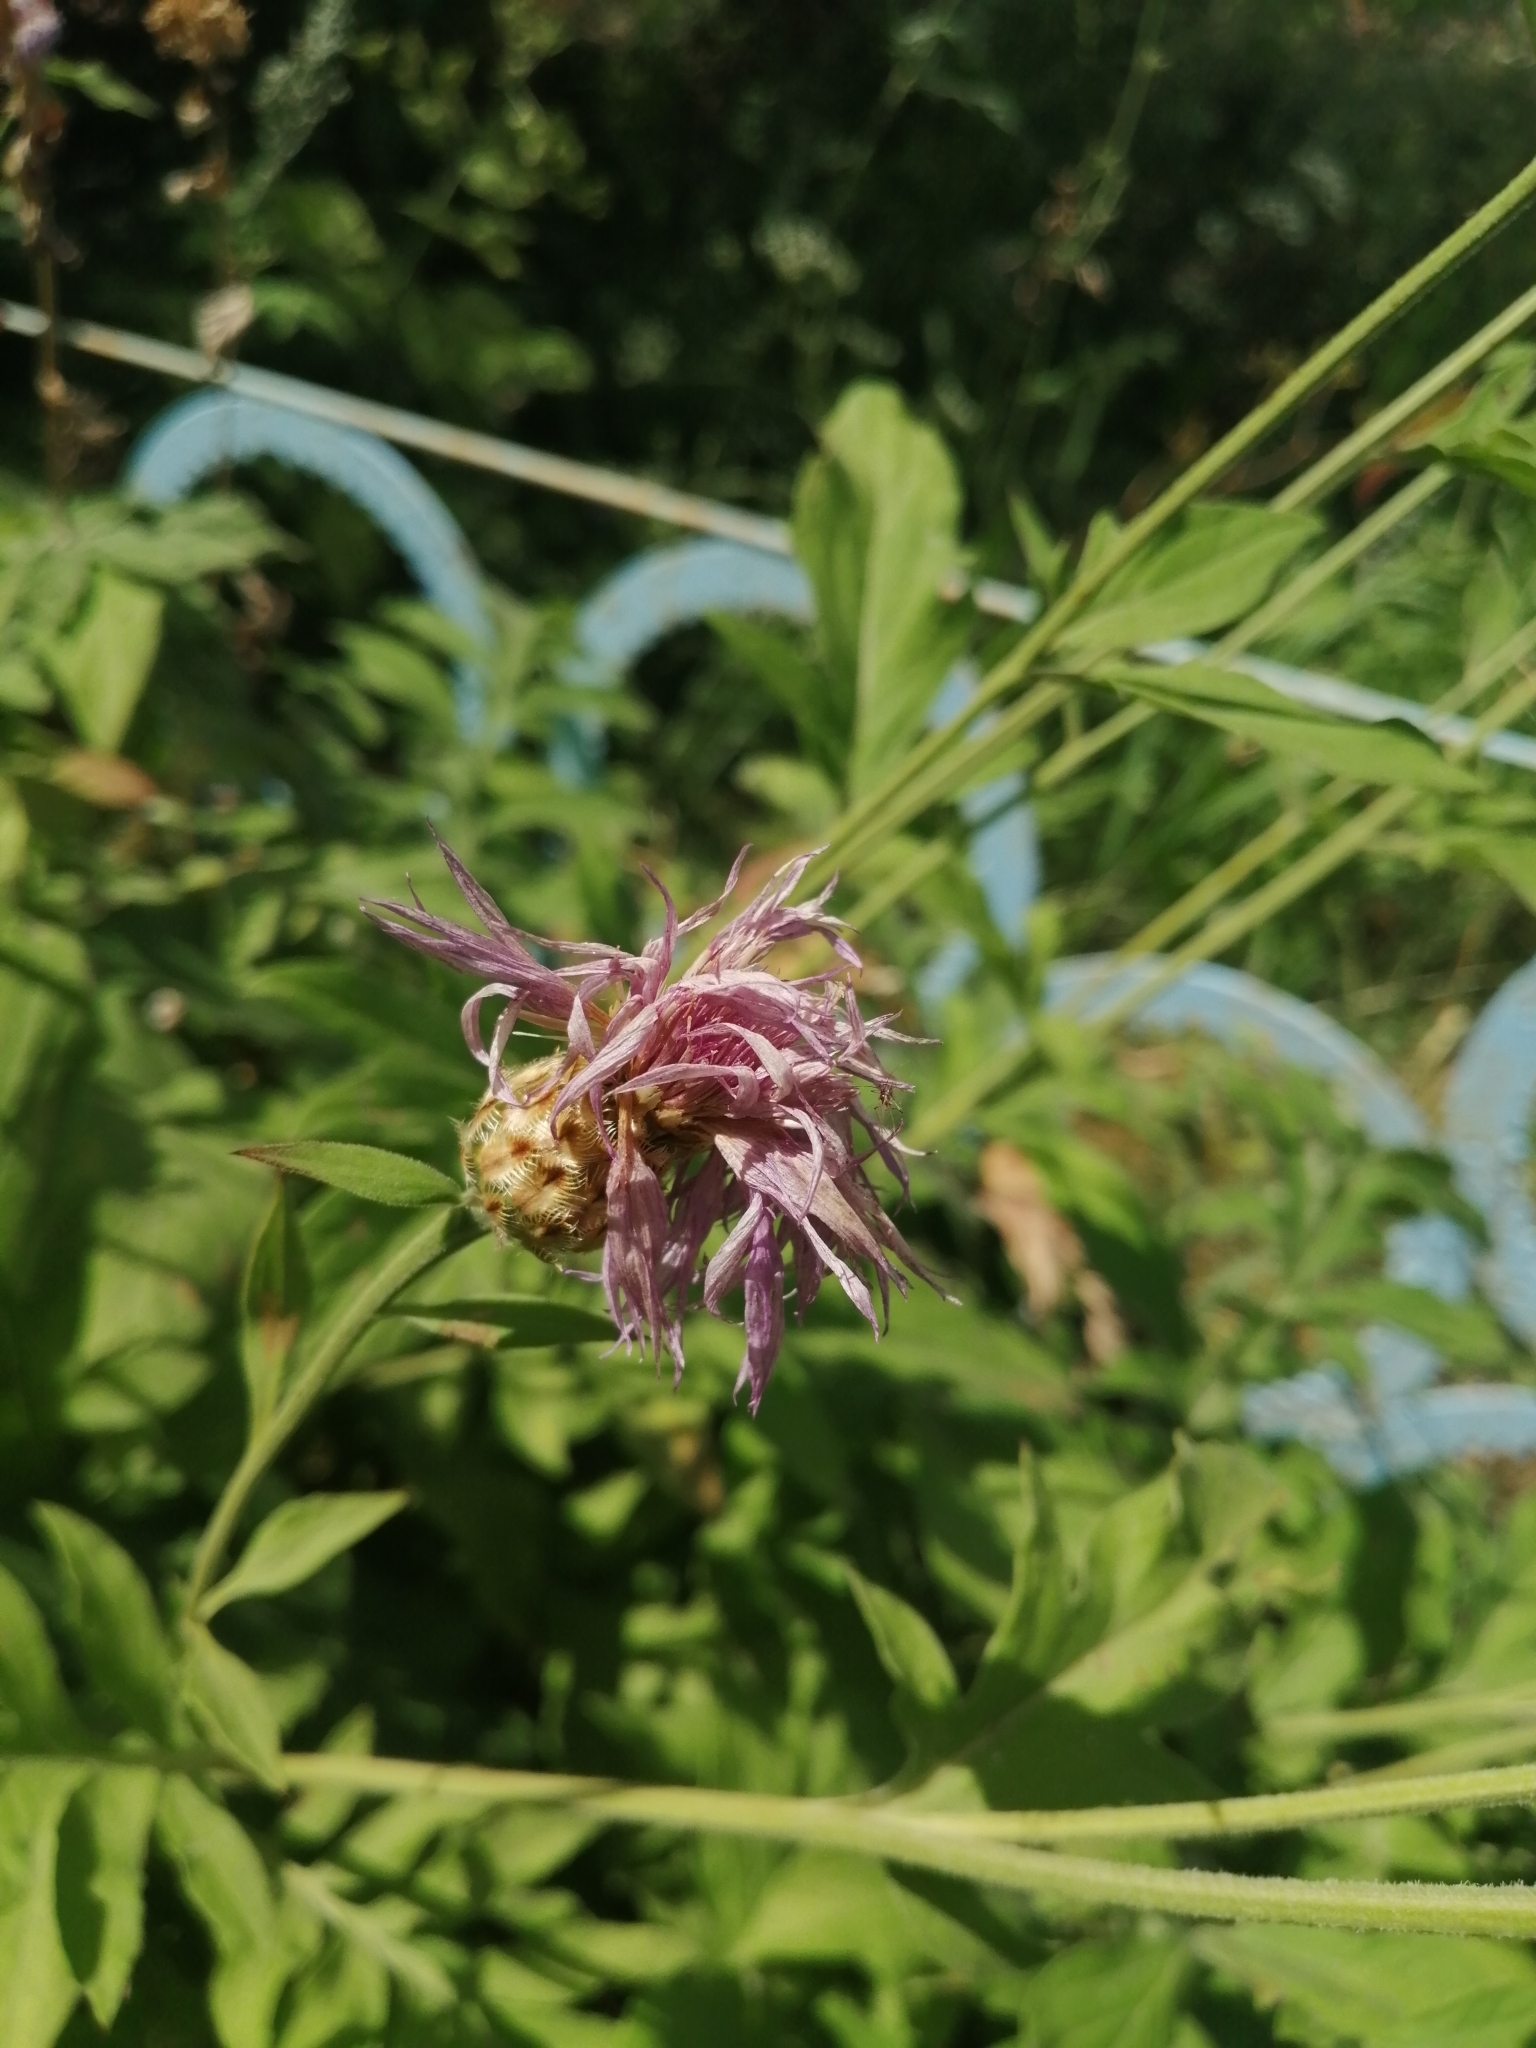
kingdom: Plantae
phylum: Tracheophyta
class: Magnoliopsida
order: Asterales
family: Asteraceae
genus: Psephellus
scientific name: Psephellus dealbatus
